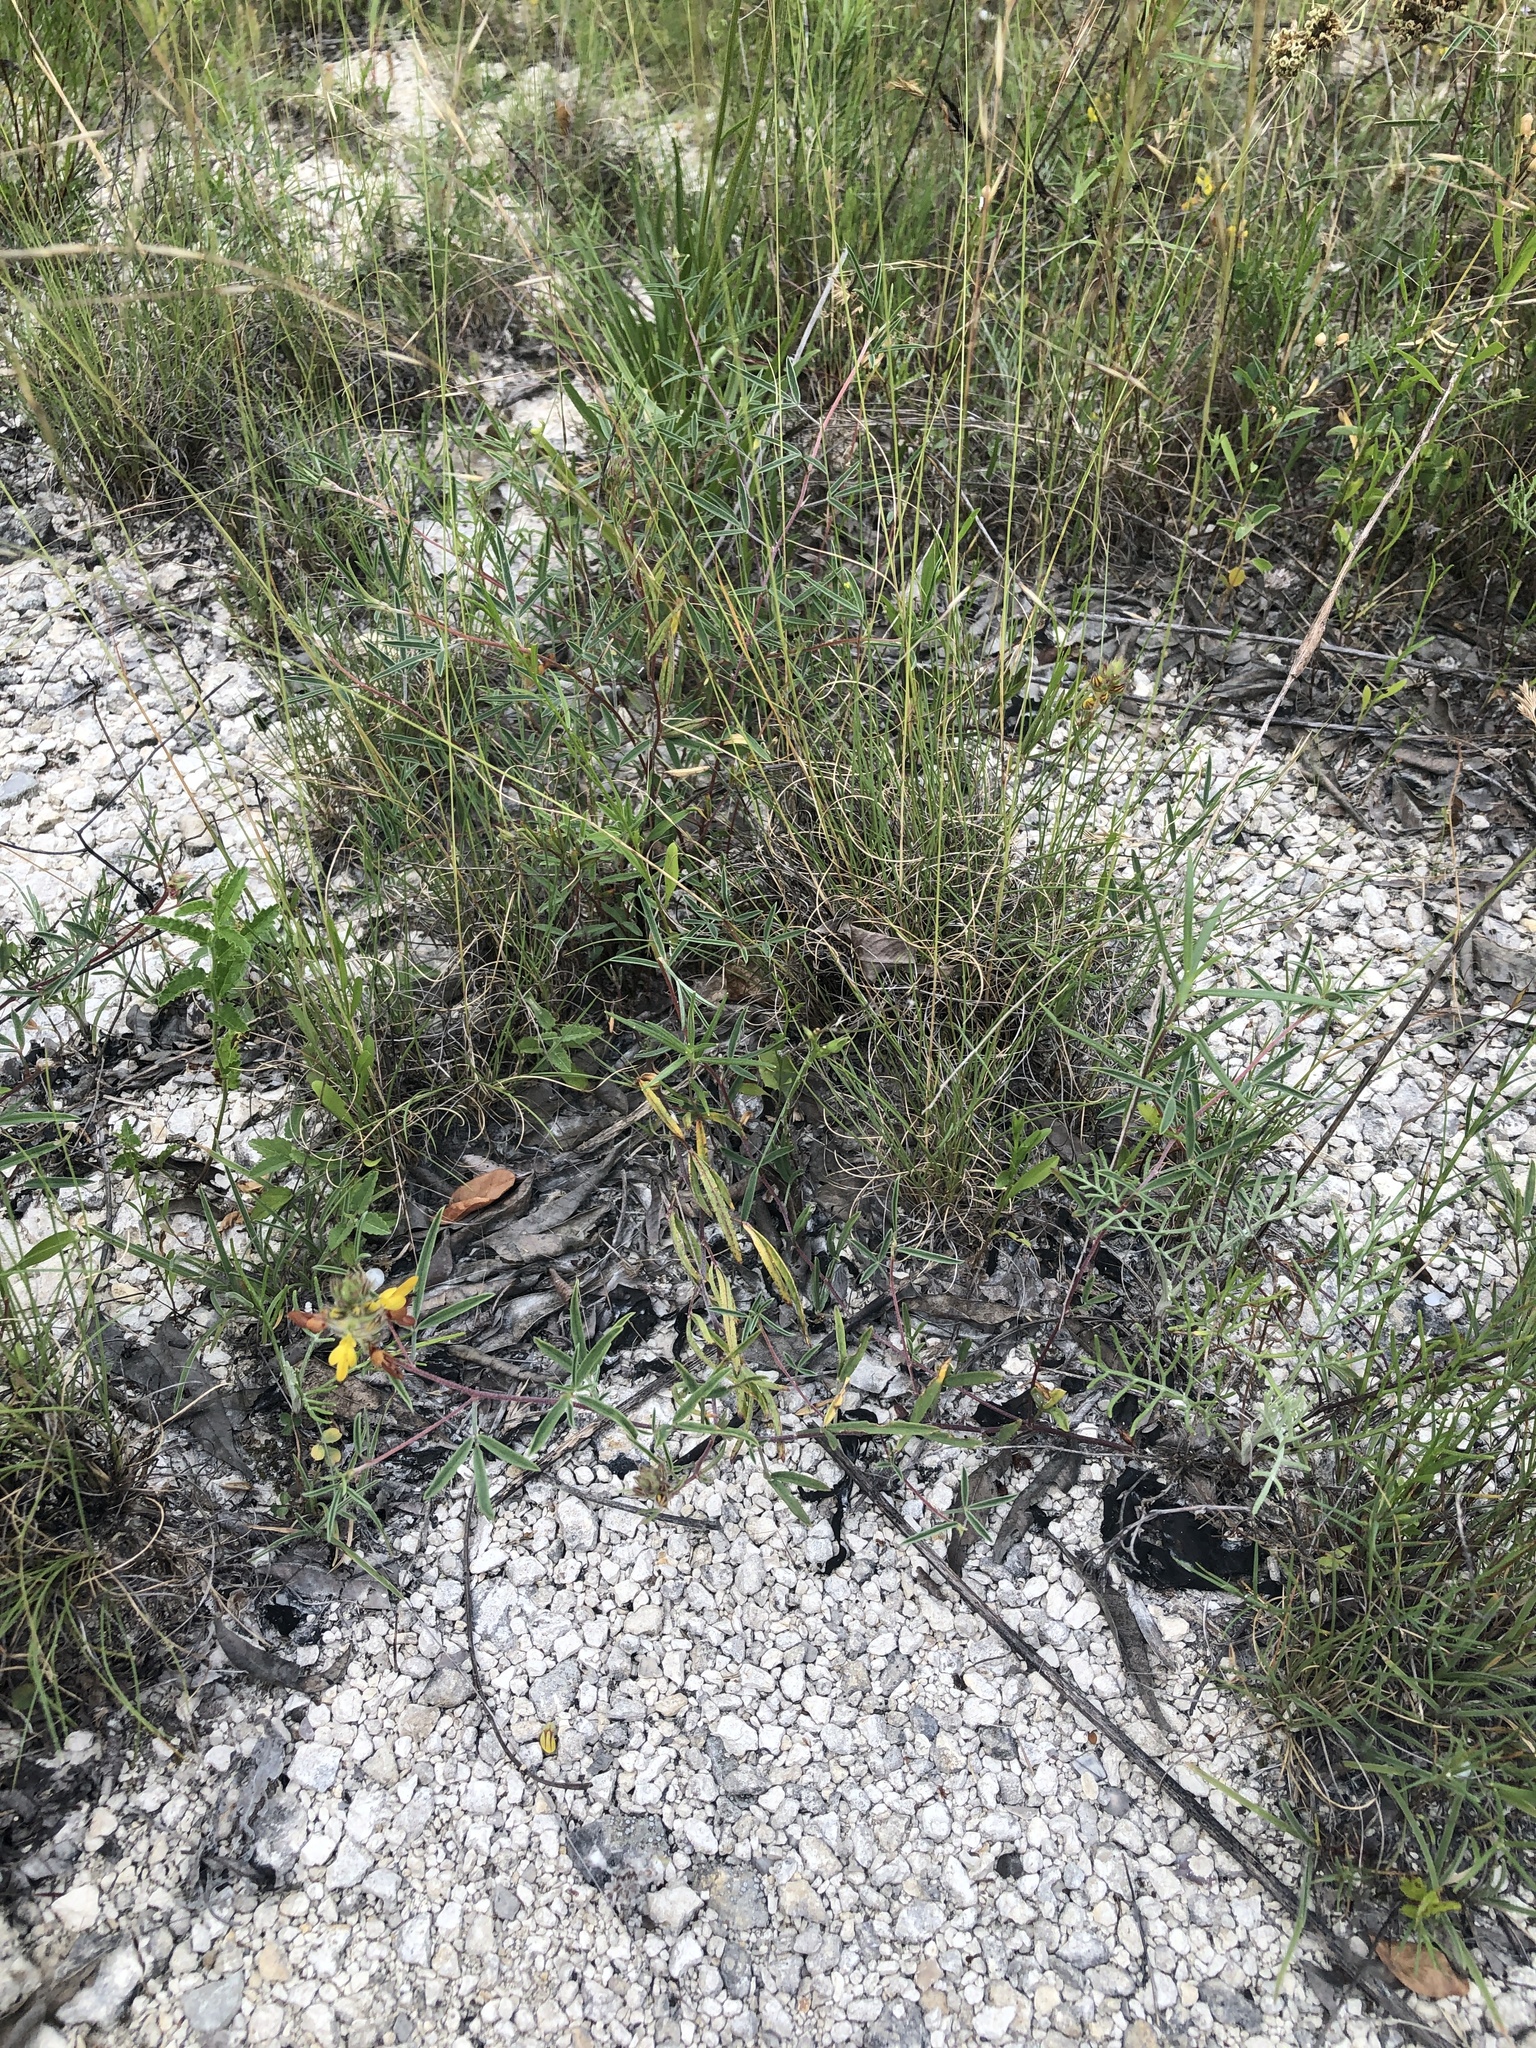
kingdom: Plantae
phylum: Tracheophyta
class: Magnoliopsida
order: Fabales
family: Fabaceae
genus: Dalea
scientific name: Dalea hallii
